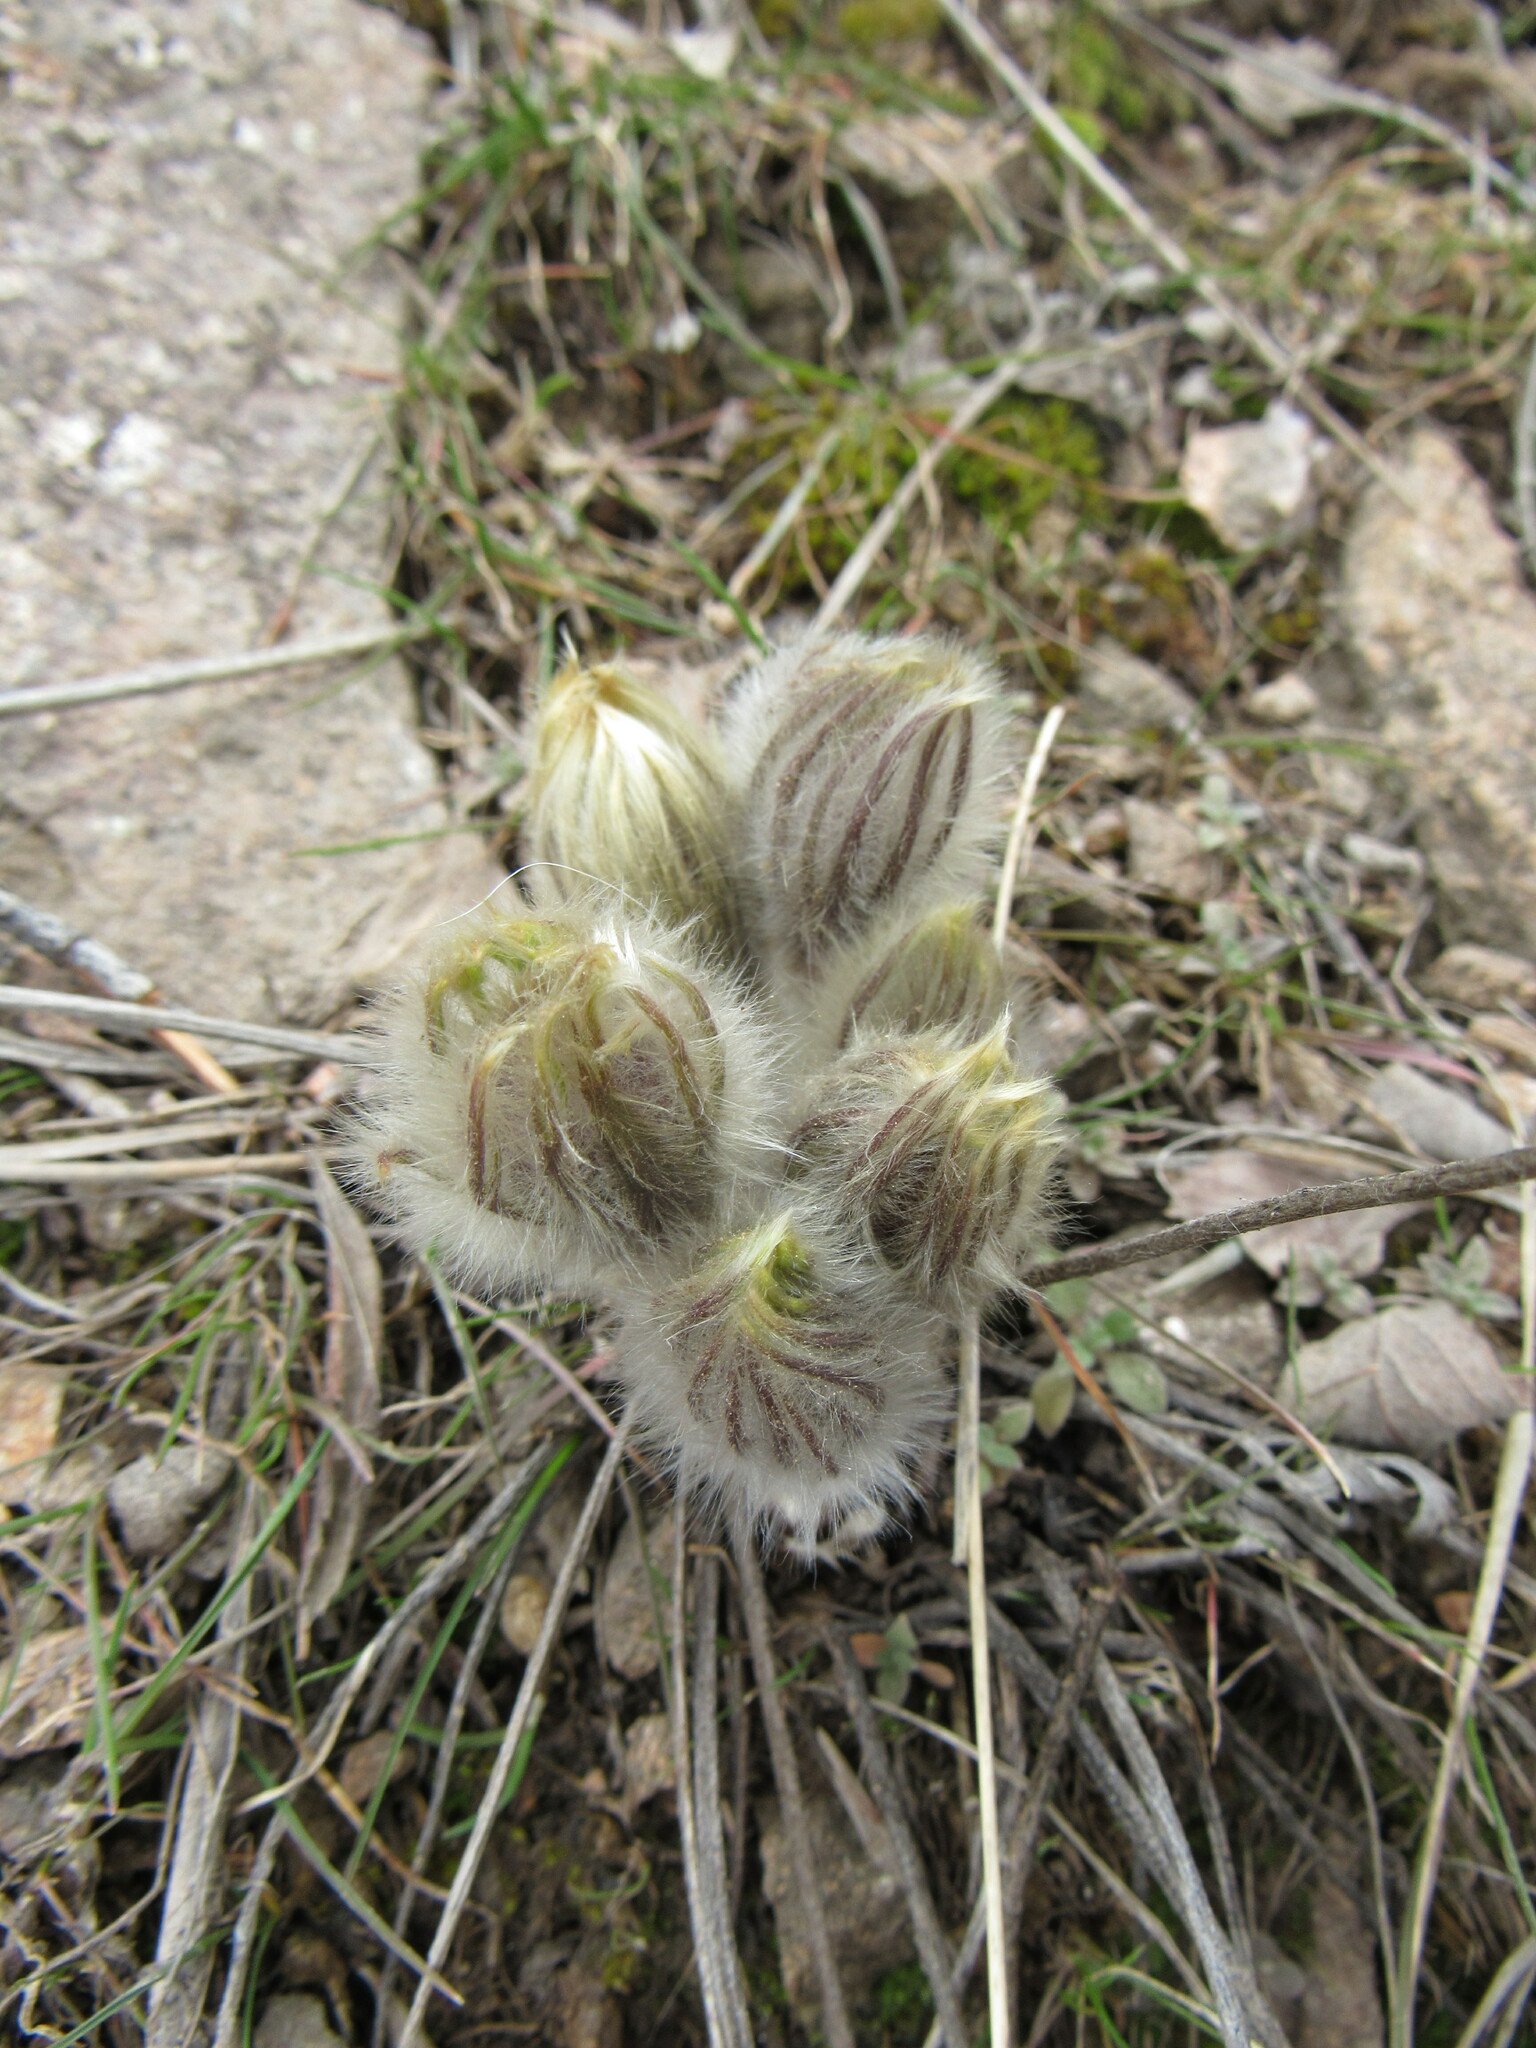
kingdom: Plantae
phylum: Tracheophyta
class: Magnoliopsida
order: Ranunculales
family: Ranunculaceae
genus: Pulsatilla
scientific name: Pulsatilla nuttalliana
